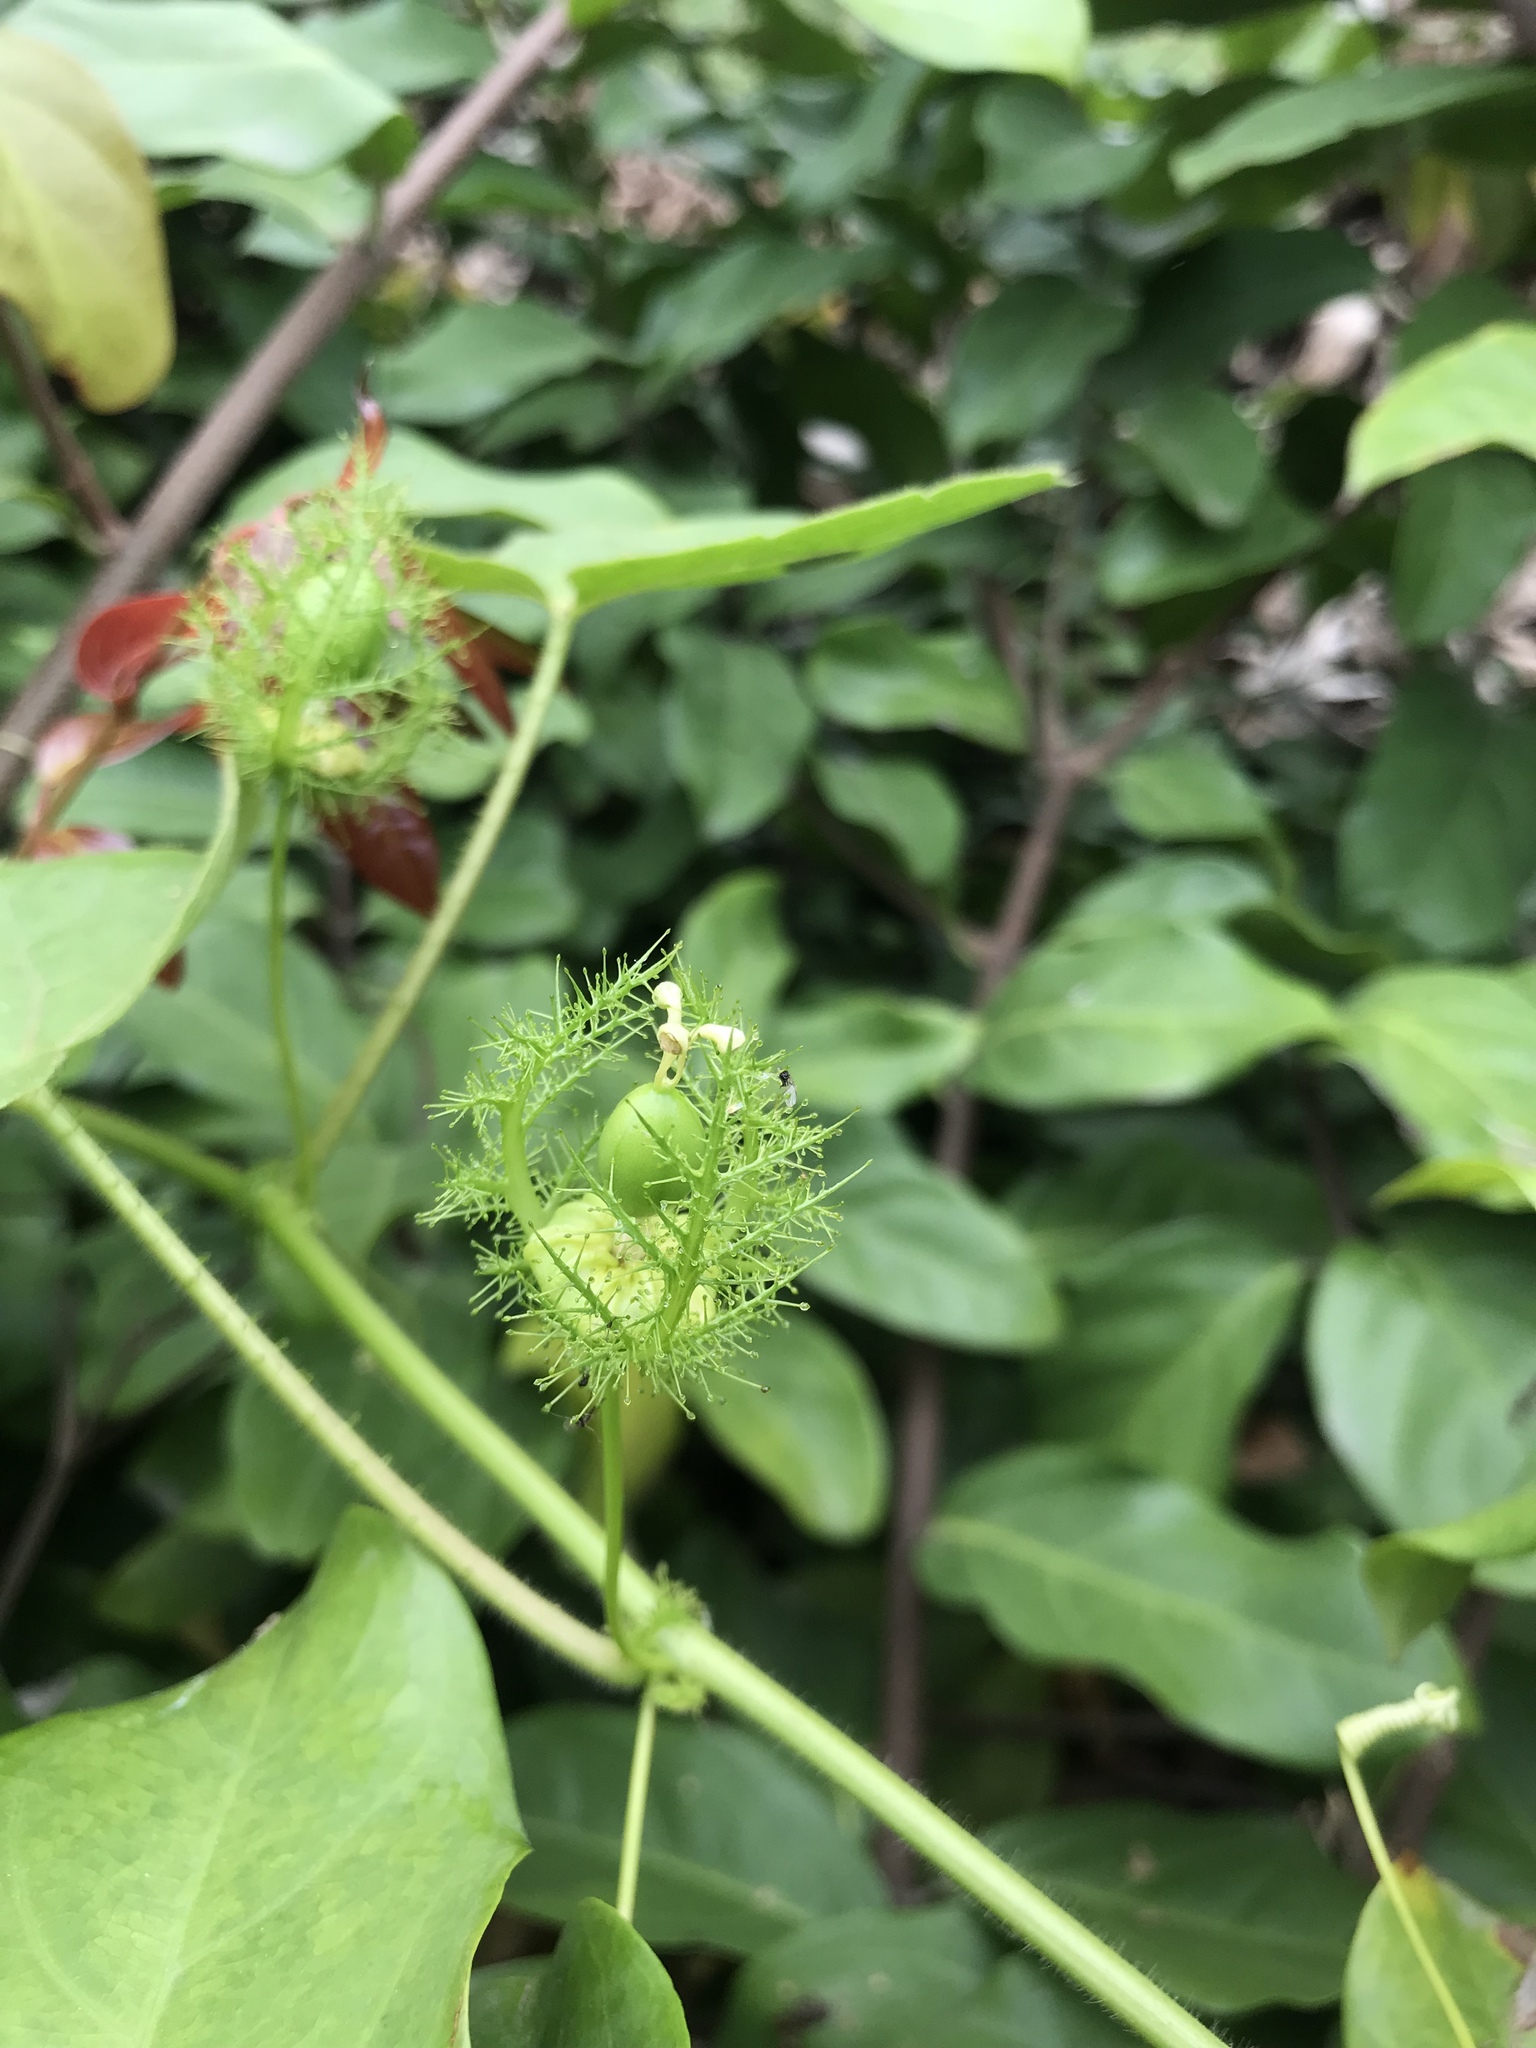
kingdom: Plantae
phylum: Tracheophyta
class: Magnoliopsida
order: Malpighiales
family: Passifloraceae
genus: Passiflora
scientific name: Passiflora vesicaria
